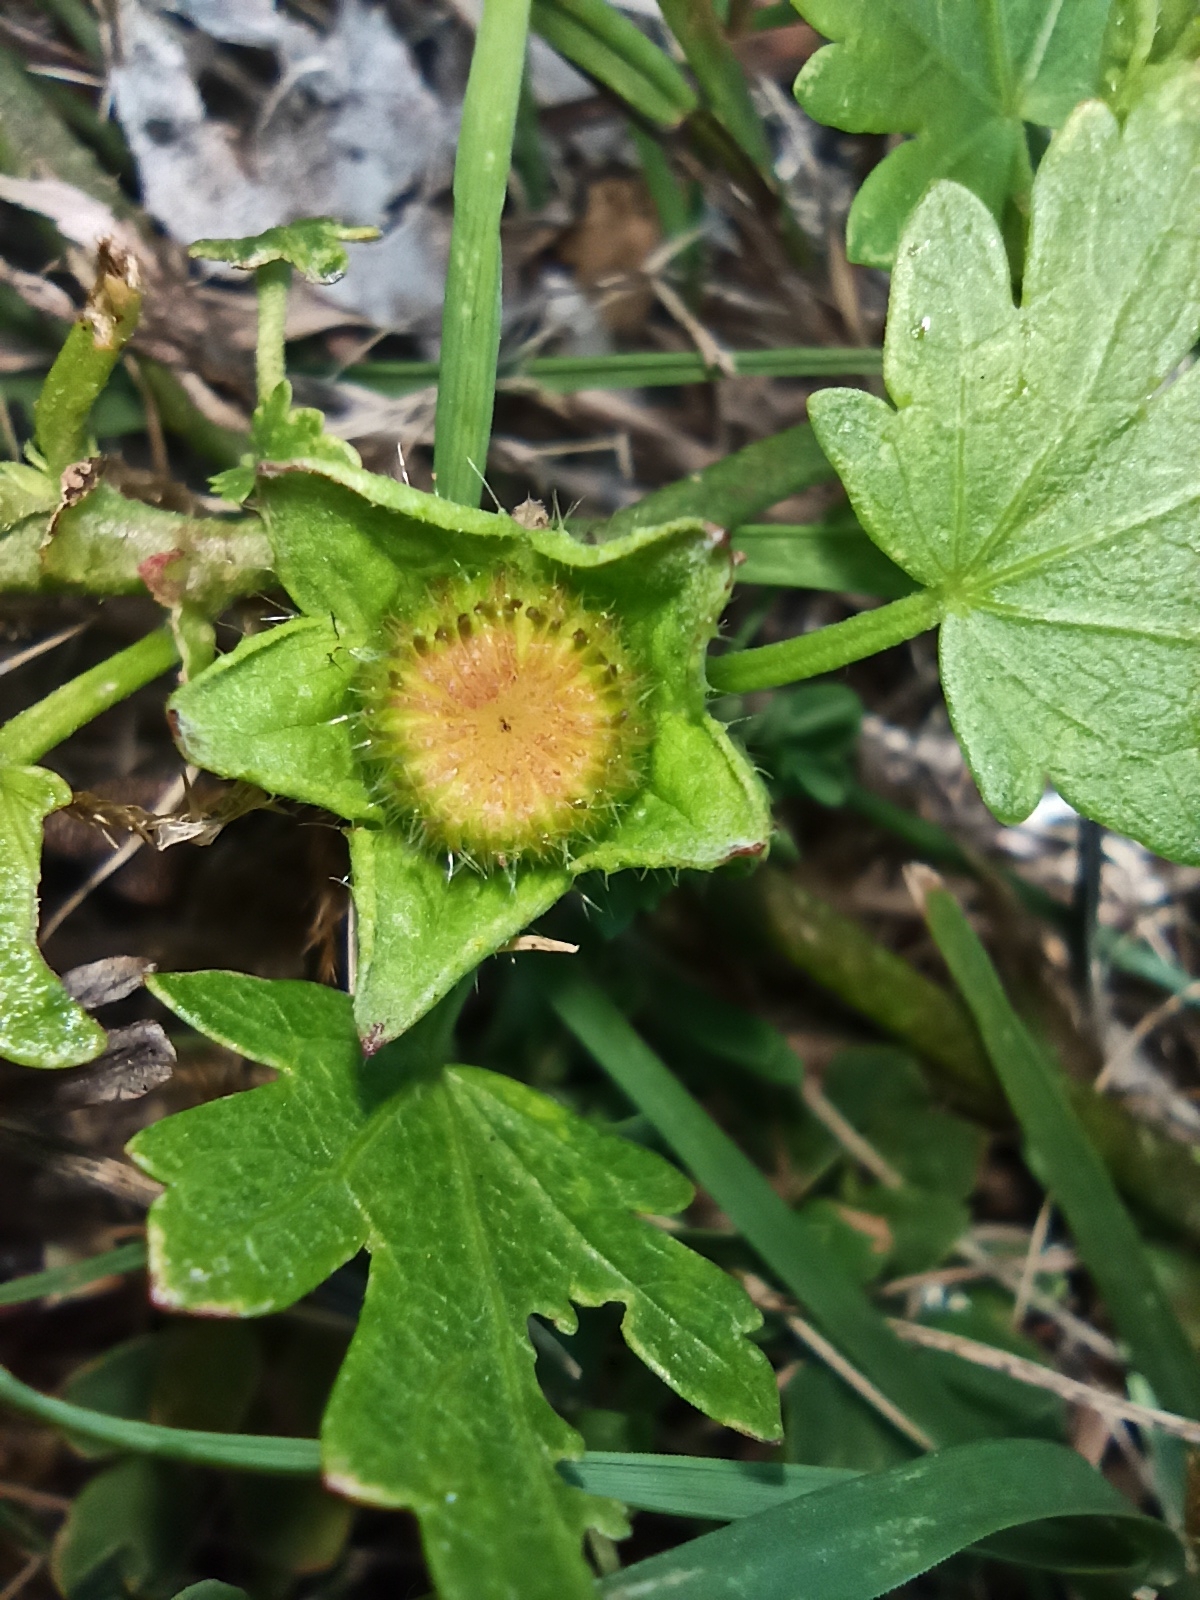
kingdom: Plantae
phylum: Tracheophyta
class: Magnoliopsida
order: Malvales
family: Malvaceae
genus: Modiola
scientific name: Modiola caroliniana
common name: Carolina bristlemallow
